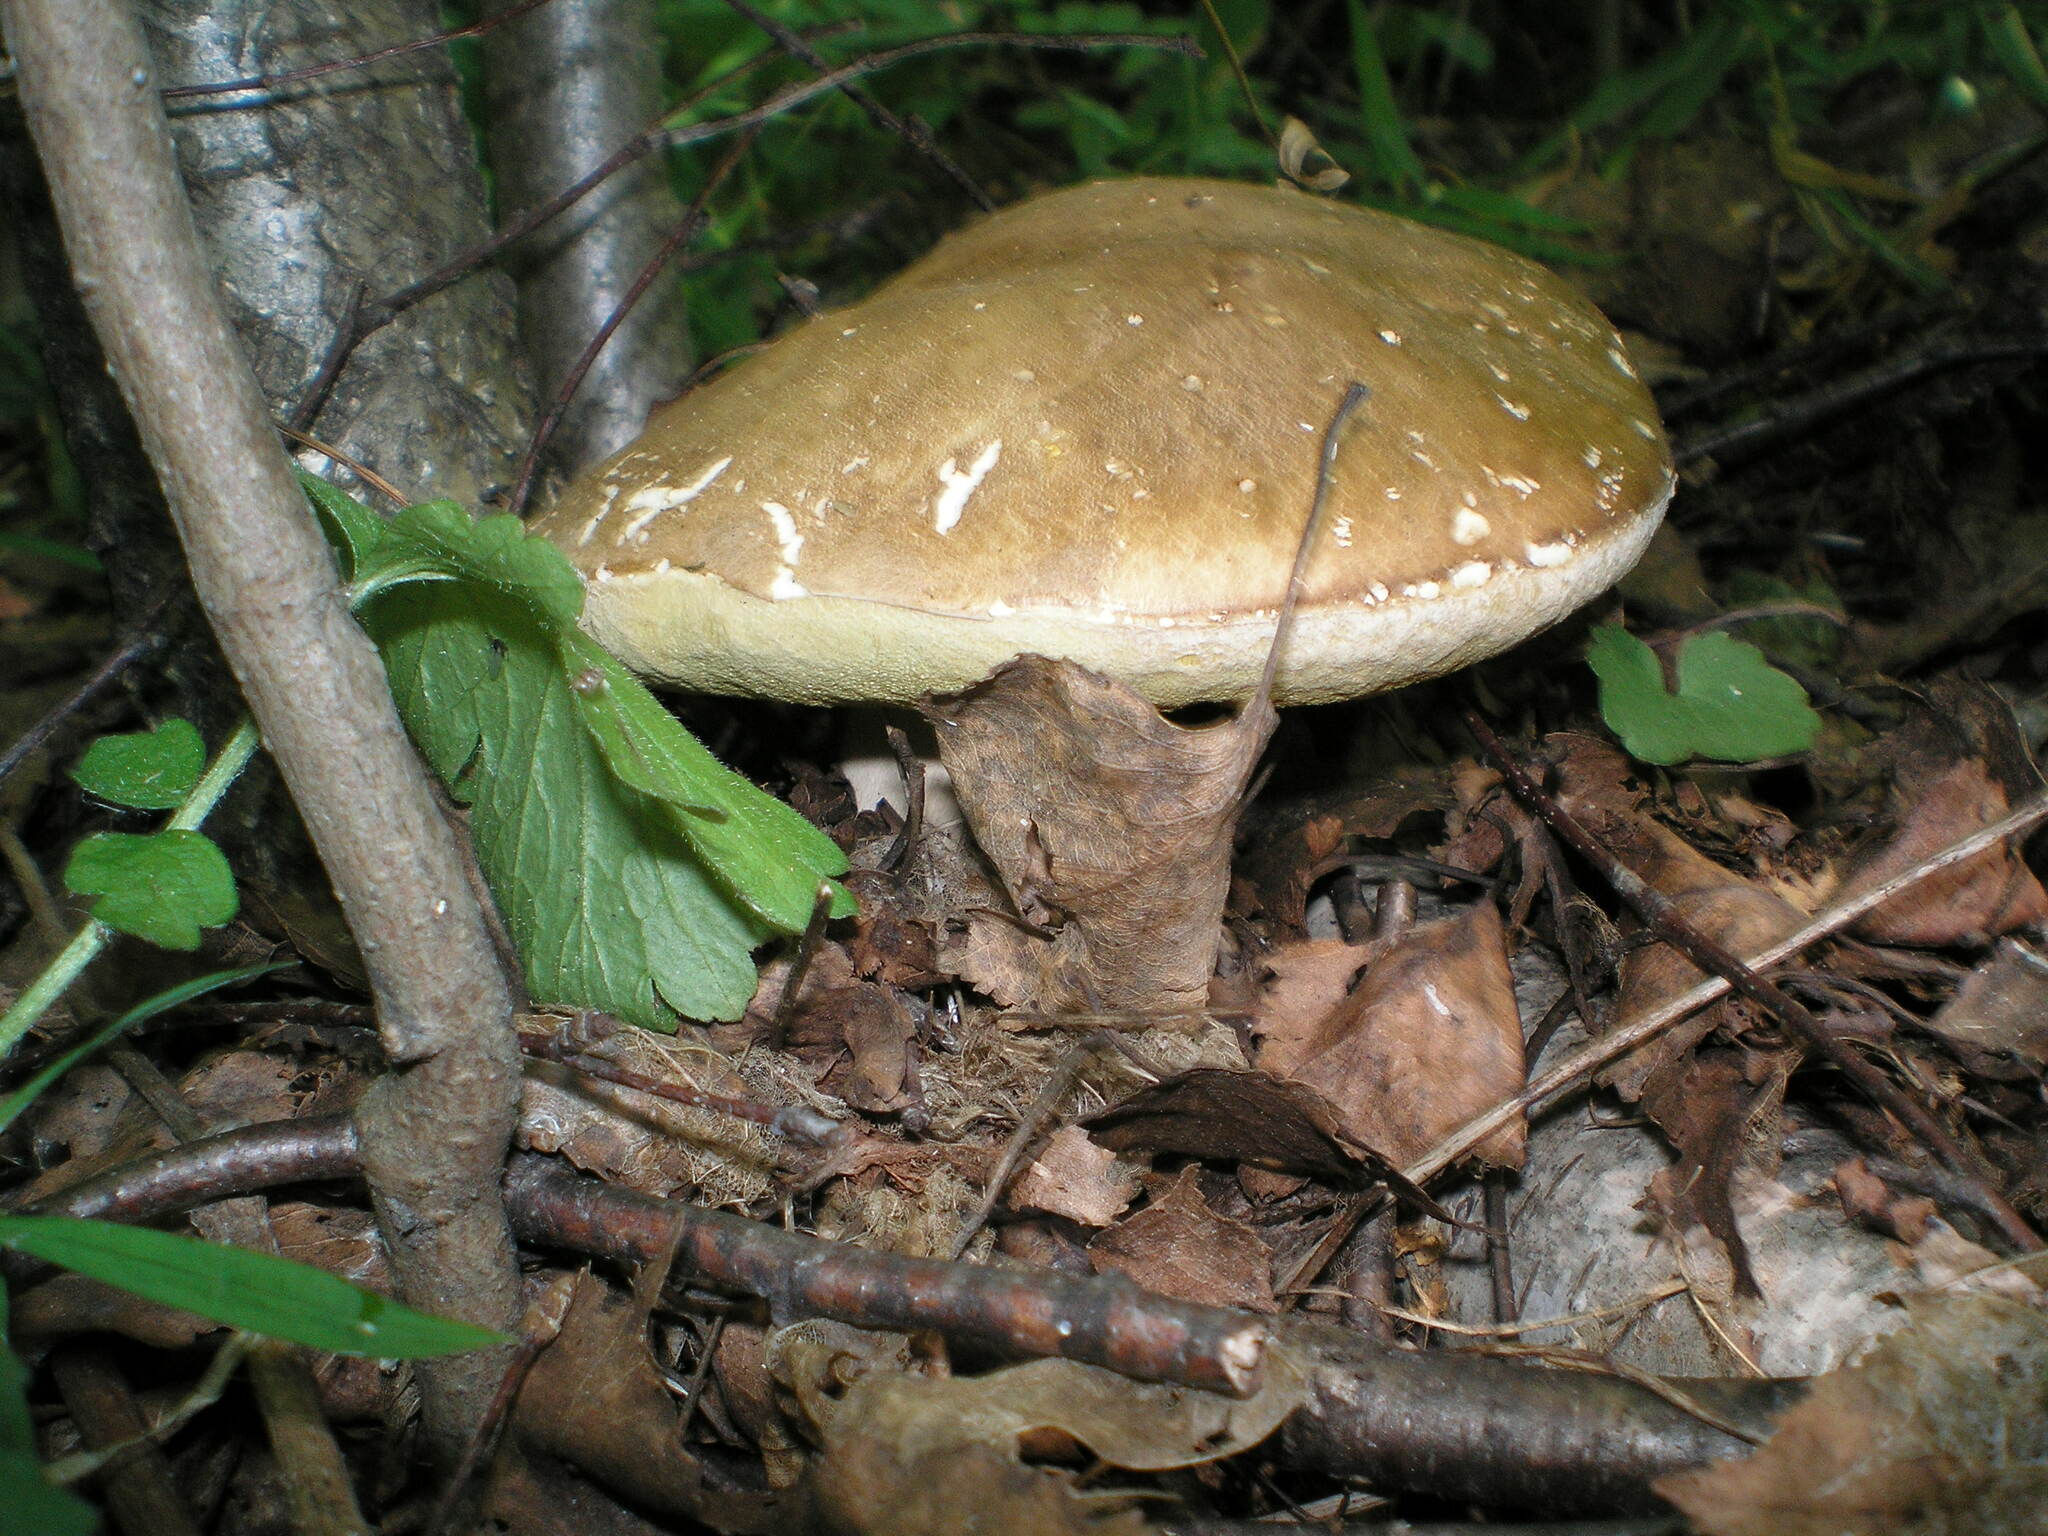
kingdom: Fungi
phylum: Basidiomycota
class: Agaricomycetes
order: Boletales
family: Boletaceae
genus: Boletus
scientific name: Boletus reticulatus
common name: Summer bolete
